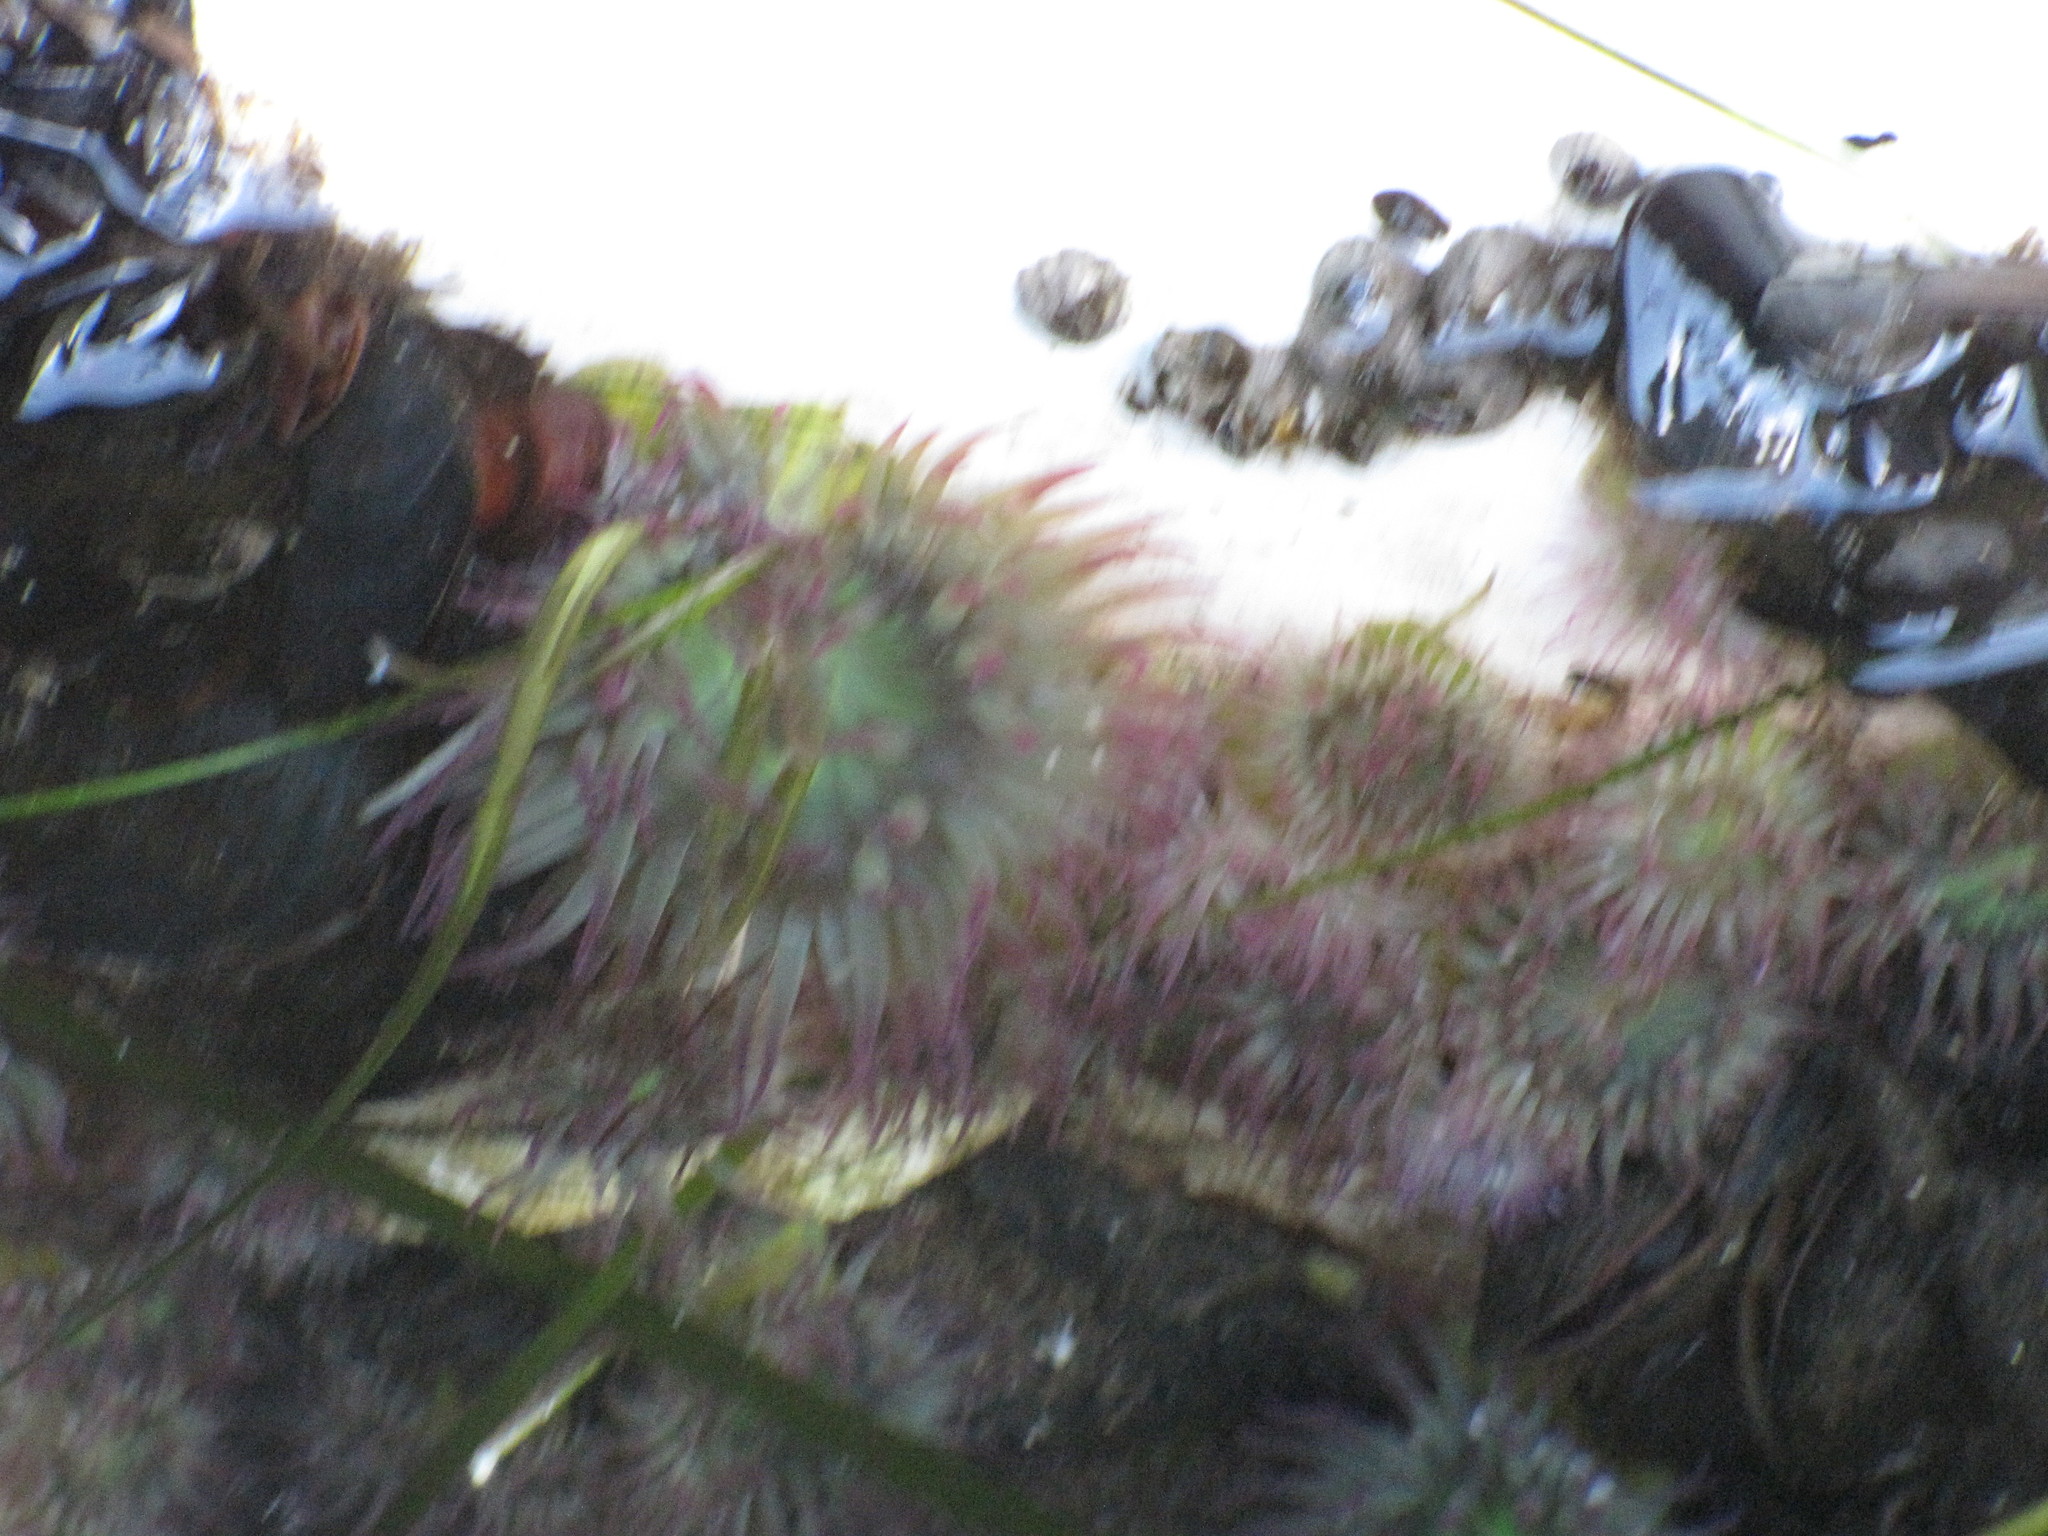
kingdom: Animalia
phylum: Cnidaria
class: Anthozoa
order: Actiniaria
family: Actiniidae
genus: Anthopleura
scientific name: Anthopleura elegantissima
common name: Clonal anemone
